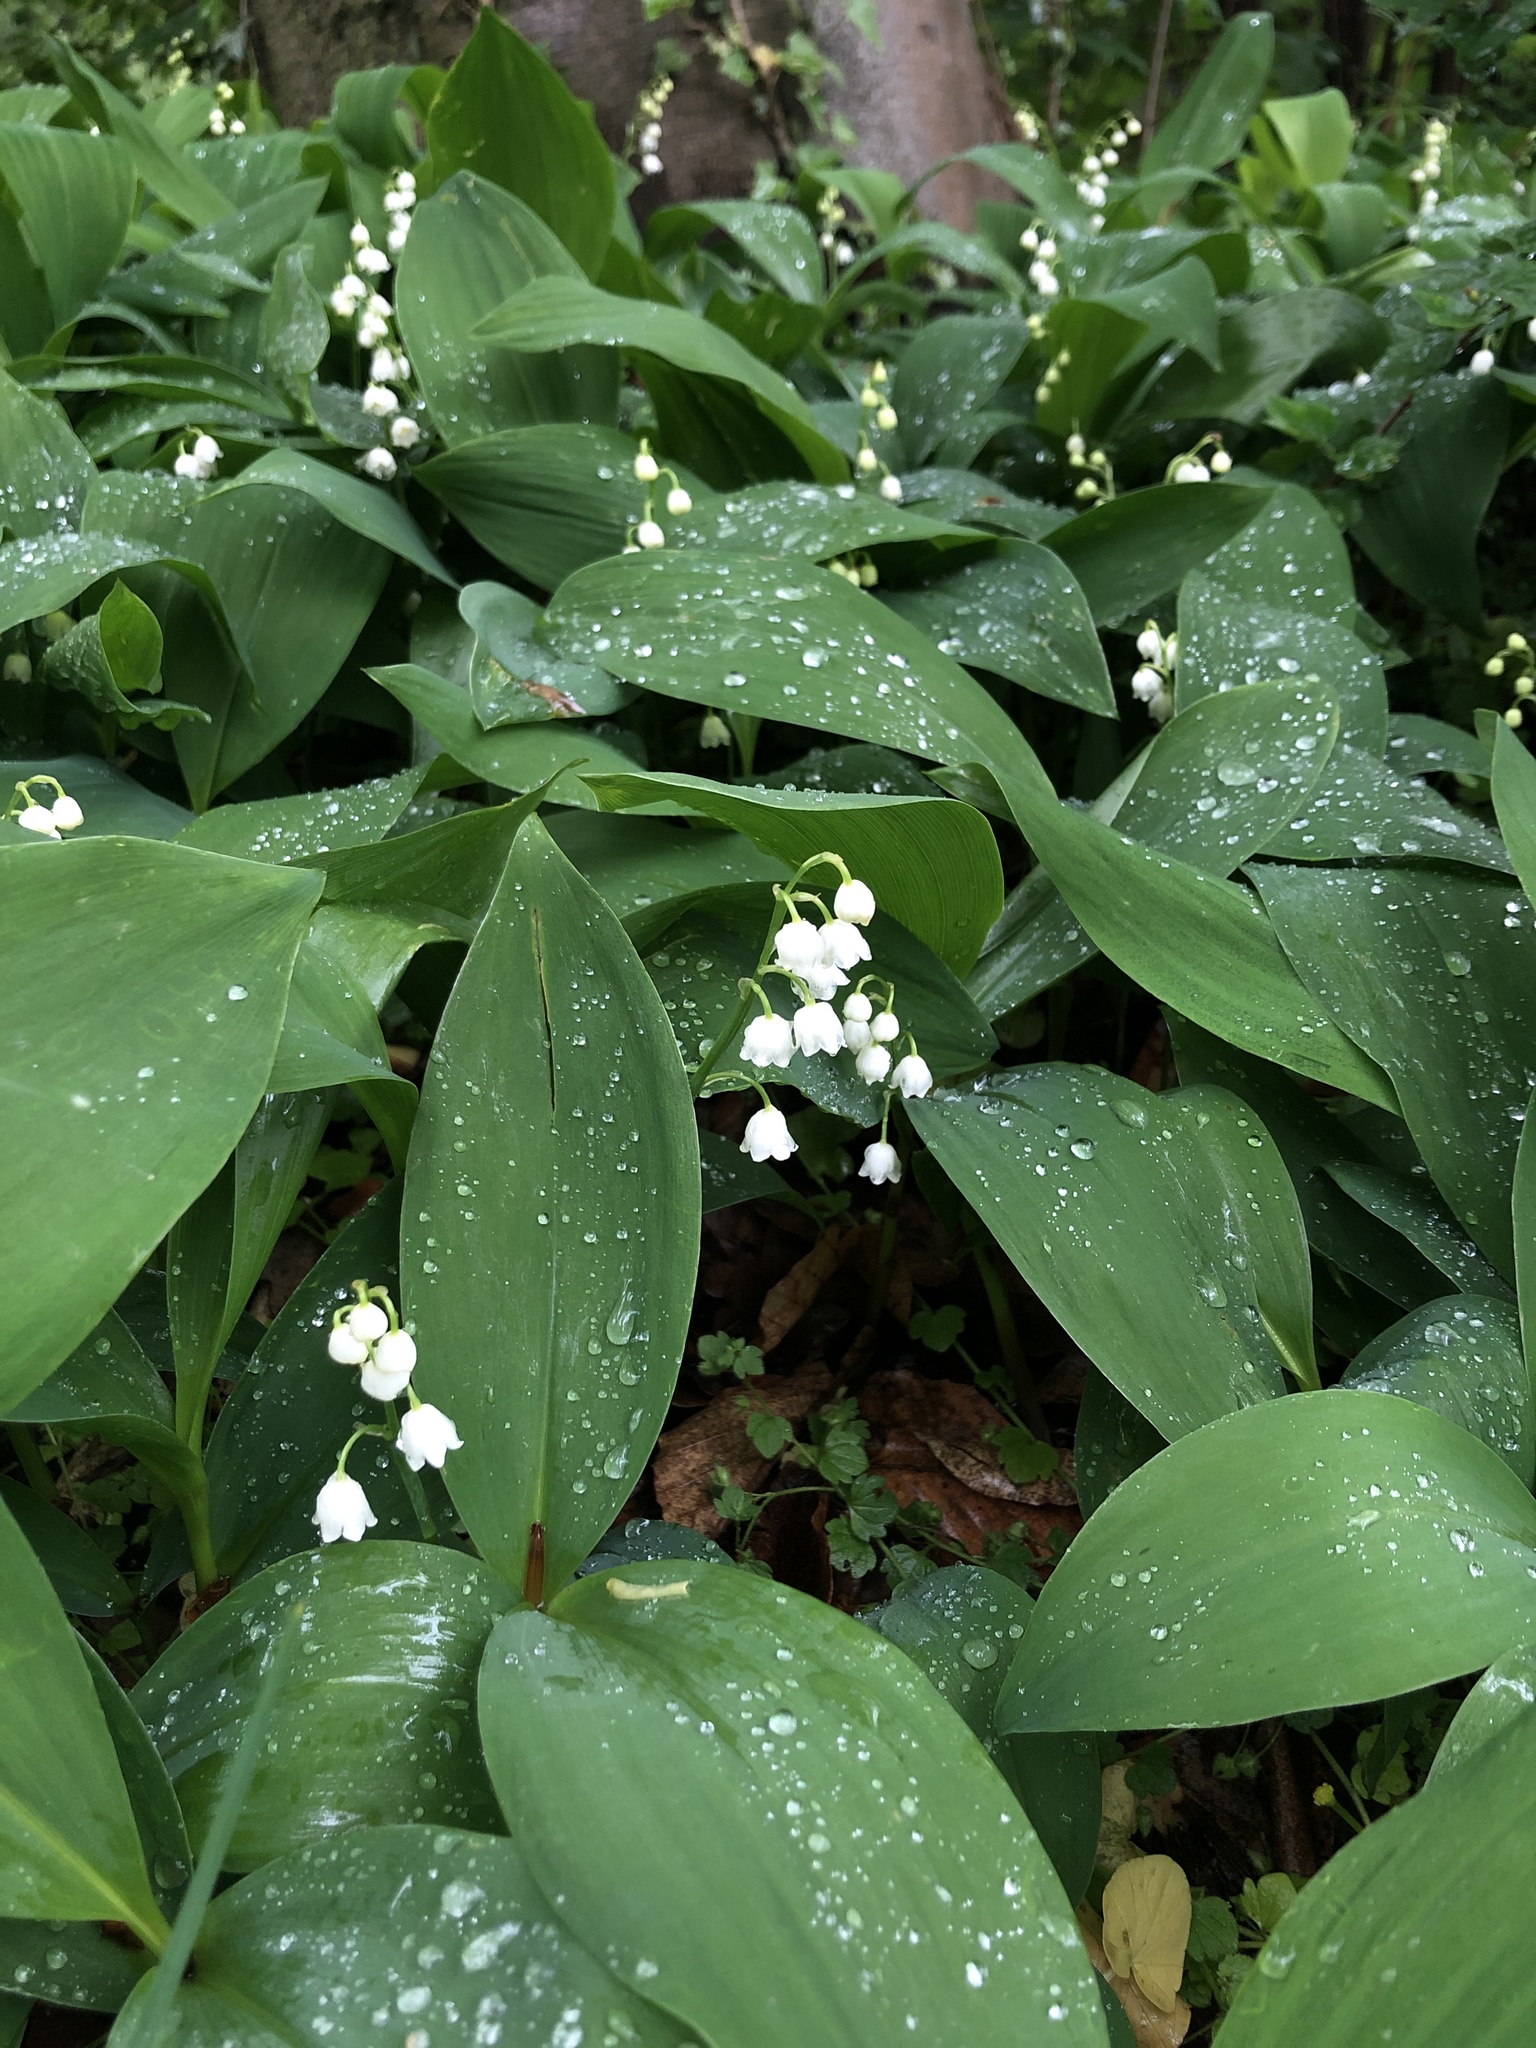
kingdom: Plantae
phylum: Tracheophyta
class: Liliopsida
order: Asparagales
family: Asparagaceae
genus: Convallaria
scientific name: Convallaria majalis
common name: Lily-of-the-valley
